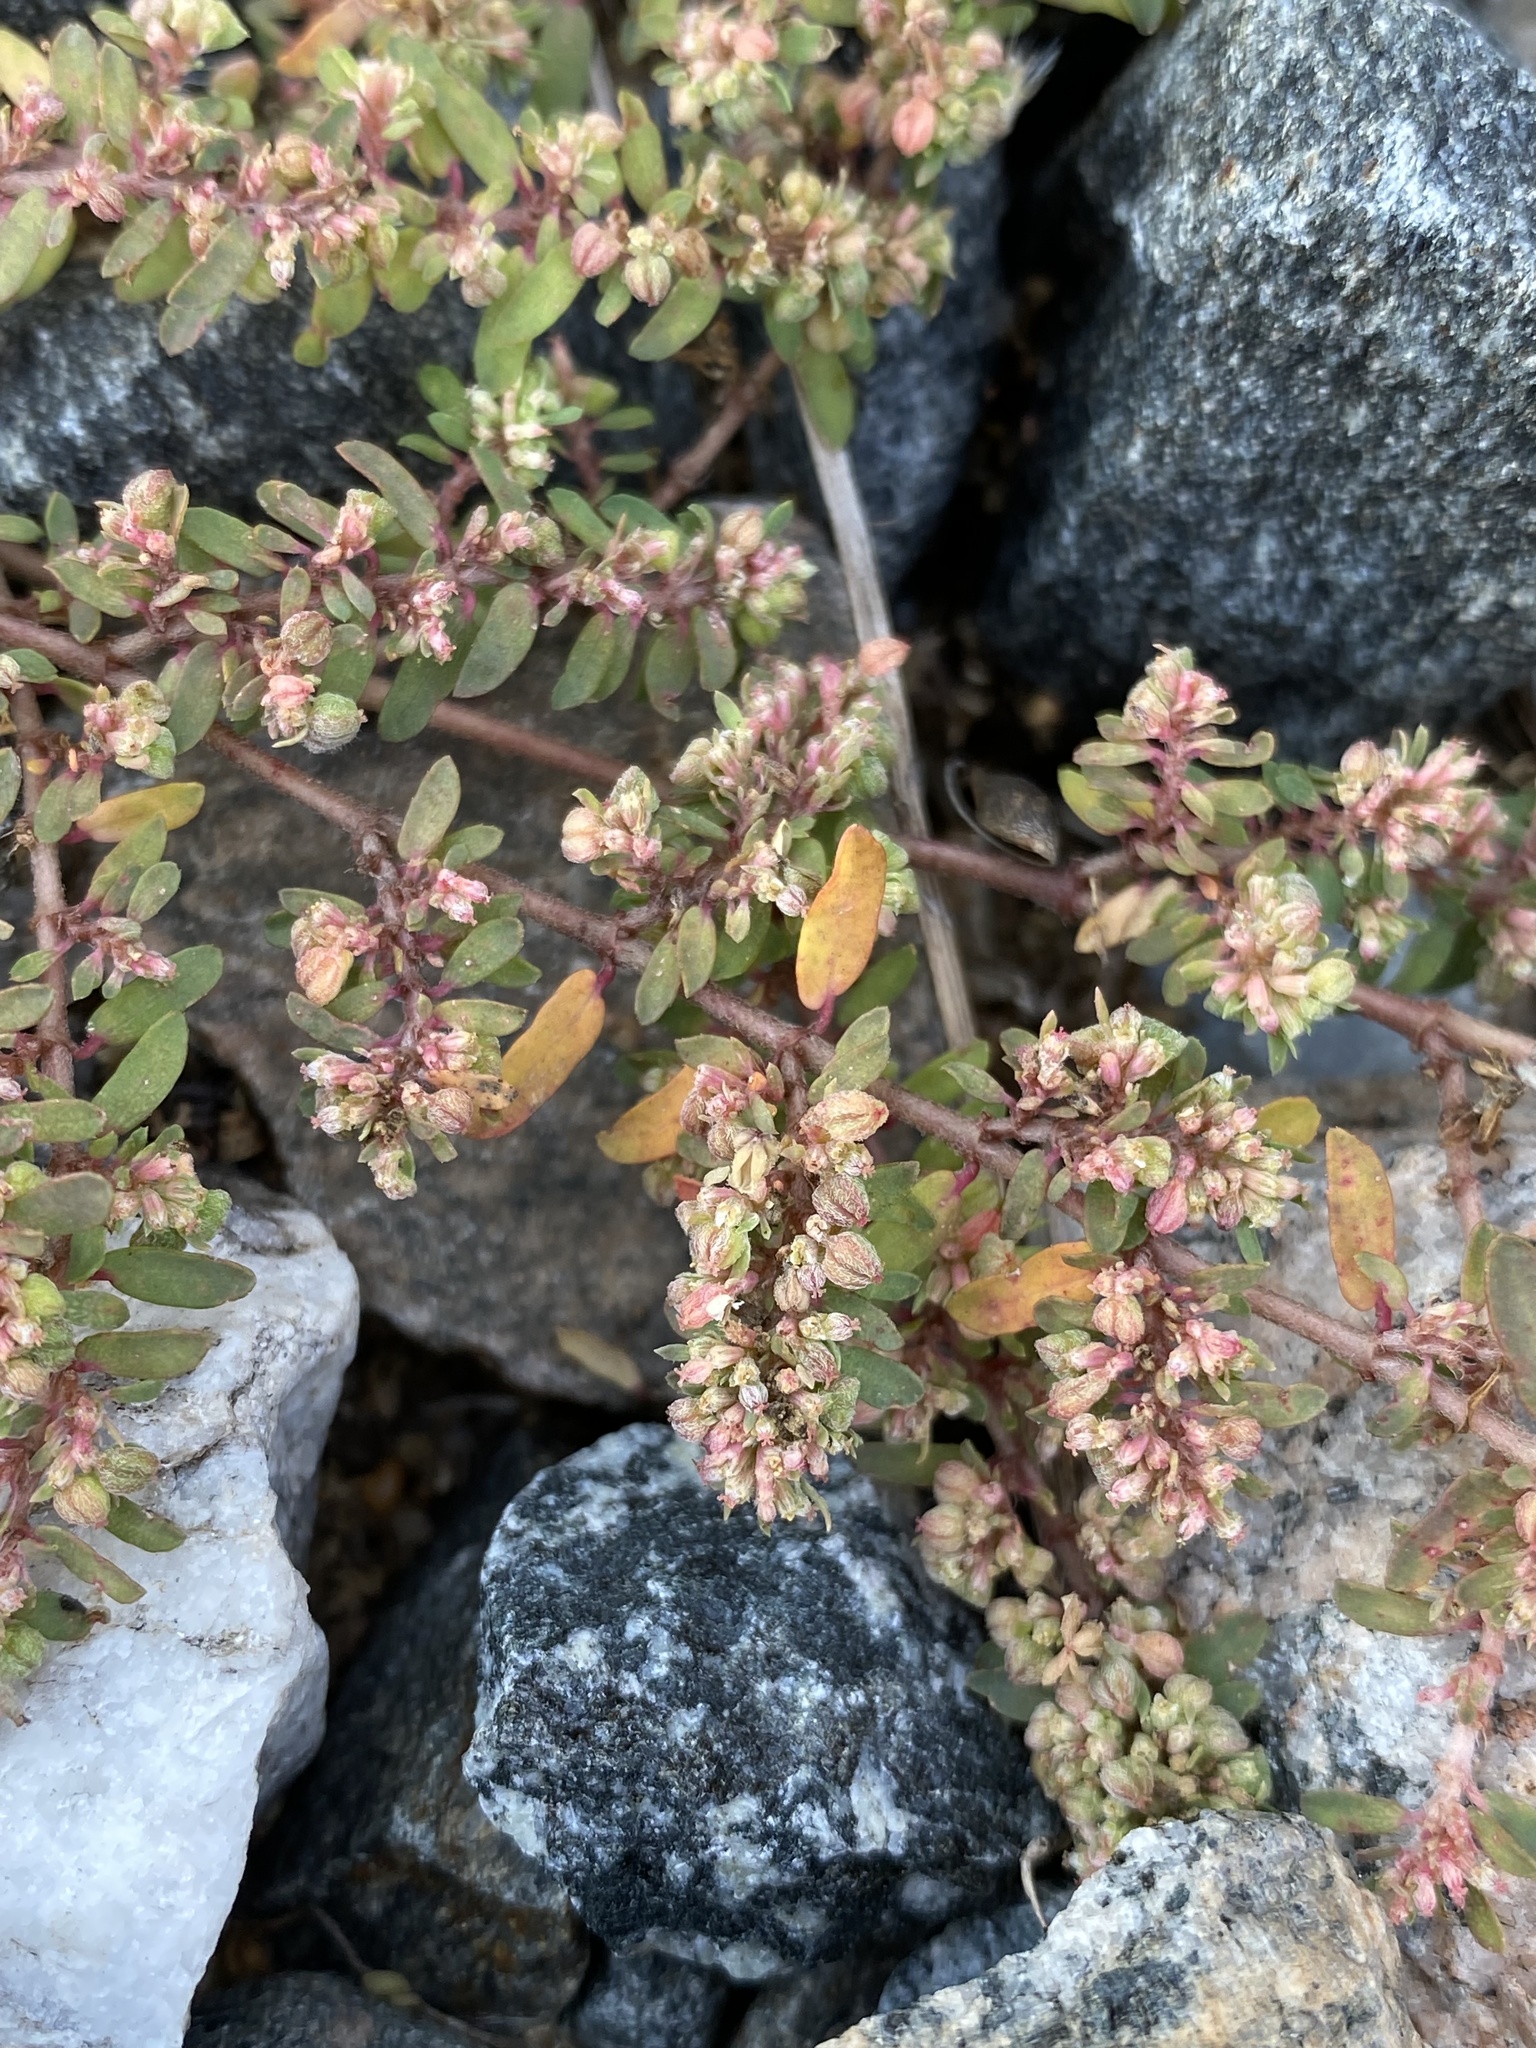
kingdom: Plantae
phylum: Tracheophyta
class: Magnoliopsida
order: Malpighiales
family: Euphorbiaceae
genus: Euphorbia
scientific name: Euphorbia maculata
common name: Spotted spurge
